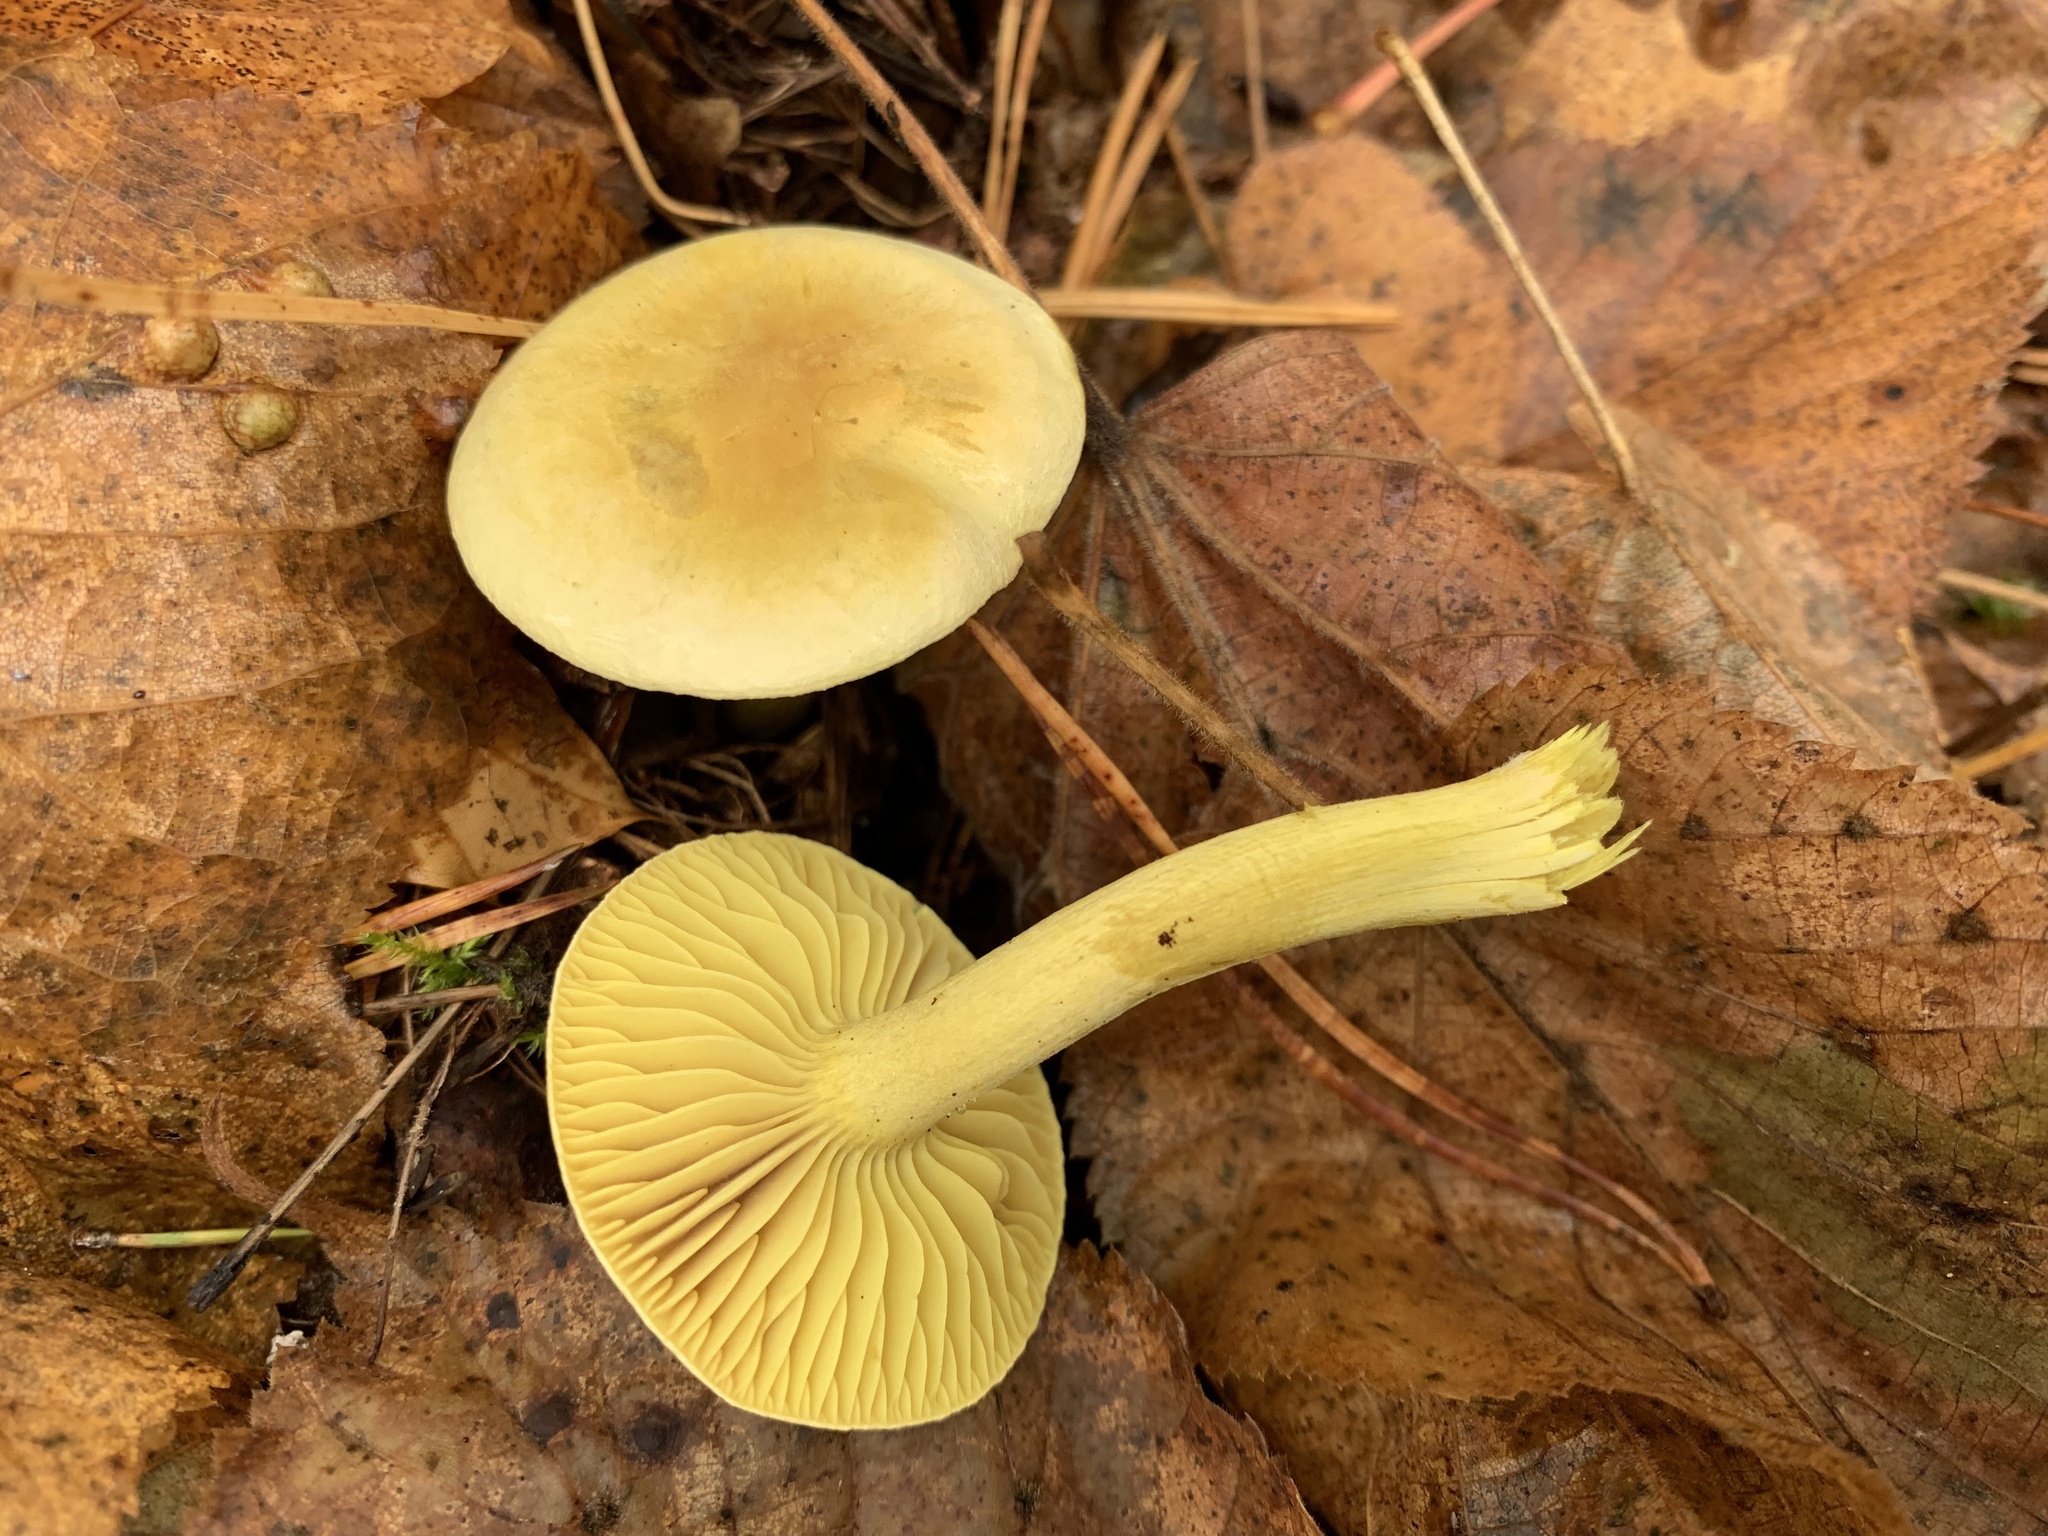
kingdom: Fungi
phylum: Basidiomycota
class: Agaricomycetes
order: Agaricales
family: Tricholomataceae
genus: Tricholoma
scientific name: Tricholoma sulphureum
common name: Stinky knight
